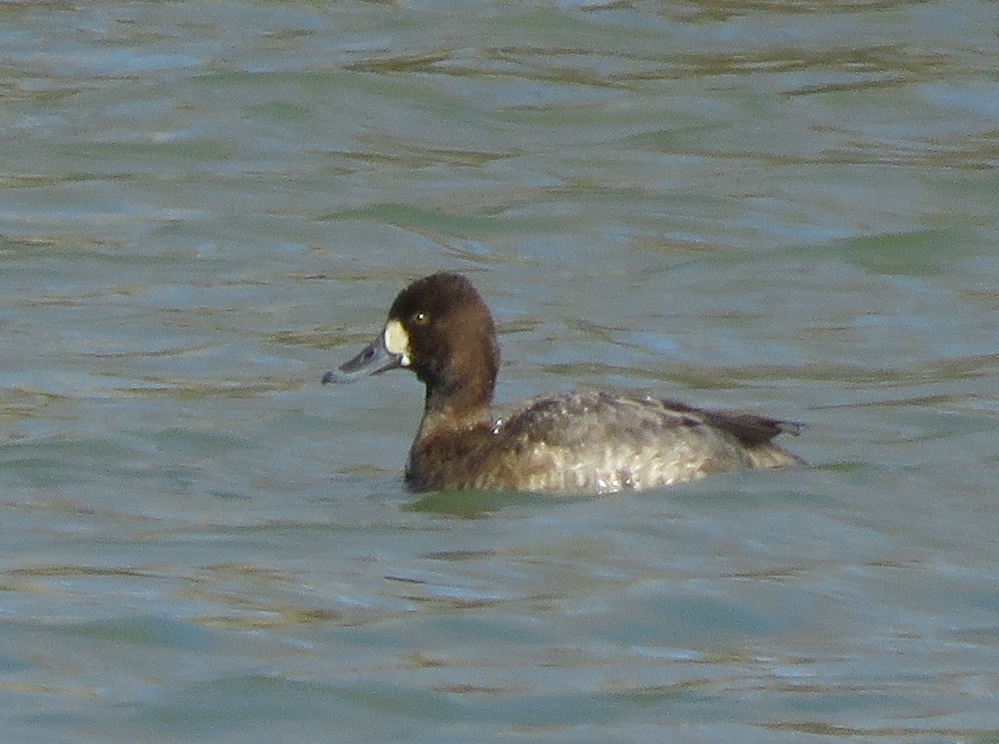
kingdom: Animalia
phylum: Chordata
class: Aves
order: Anseriformes
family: Anatidae
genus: Aythya
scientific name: Aythya affinis
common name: Lesser scaup
